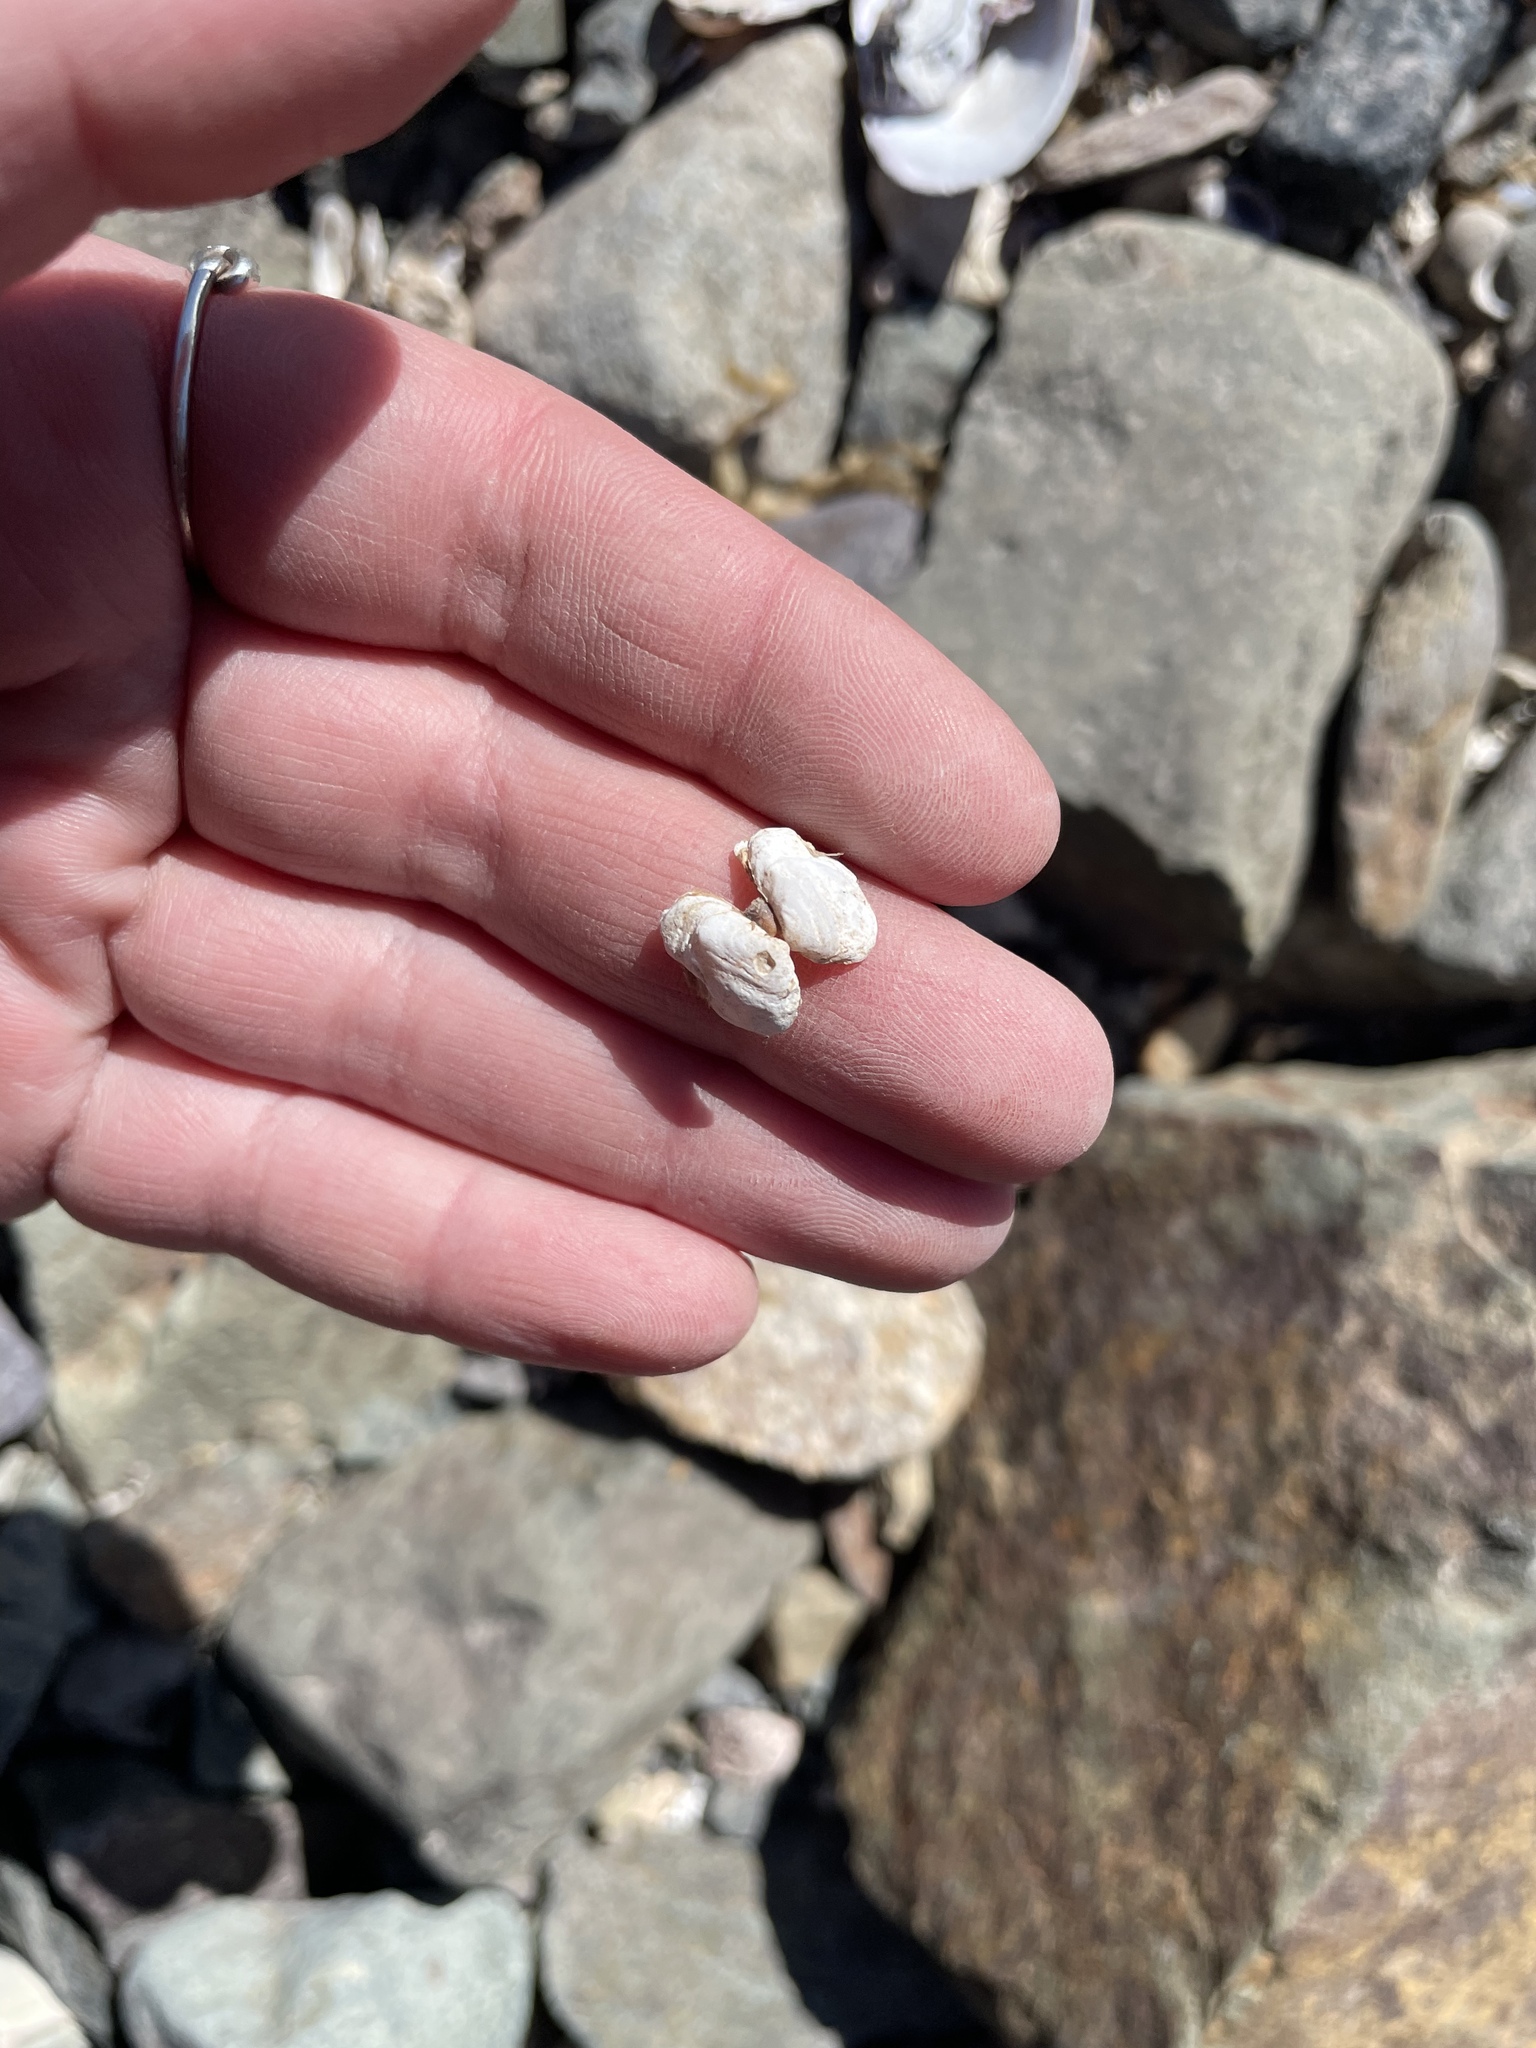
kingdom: Animalia
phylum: Mollusca
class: Bivalvia
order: Adapedonta
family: Hiatellidae
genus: Hiatella
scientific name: Hiatella arctica
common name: Arctic hiatella
